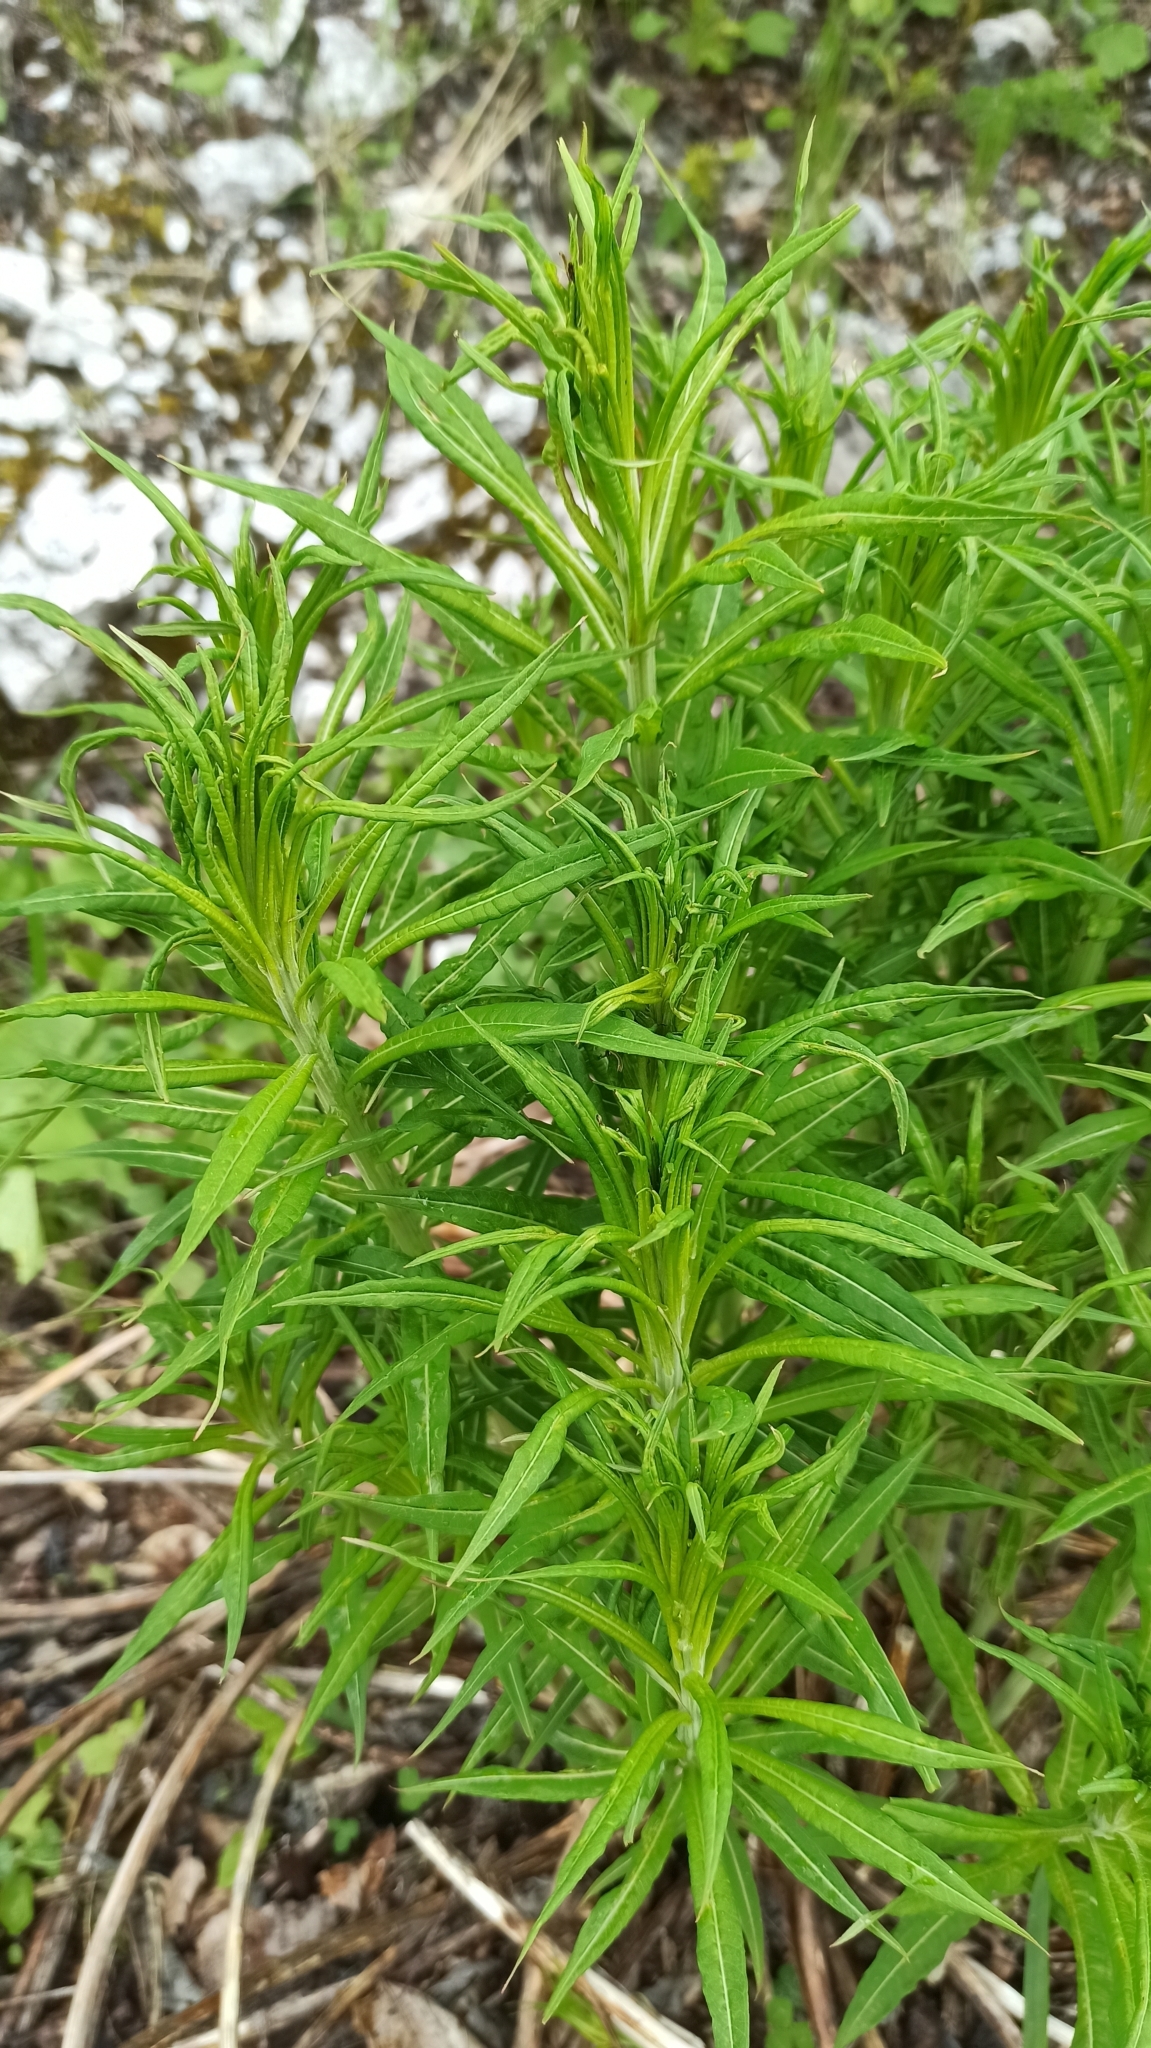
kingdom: Plantae
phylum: Tracheophyta
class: Magnoliopsida
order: Myrtales
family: Onagraceae
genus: Chamaenerion
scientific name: Chamaenerion angustifolium
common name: Fireweed
